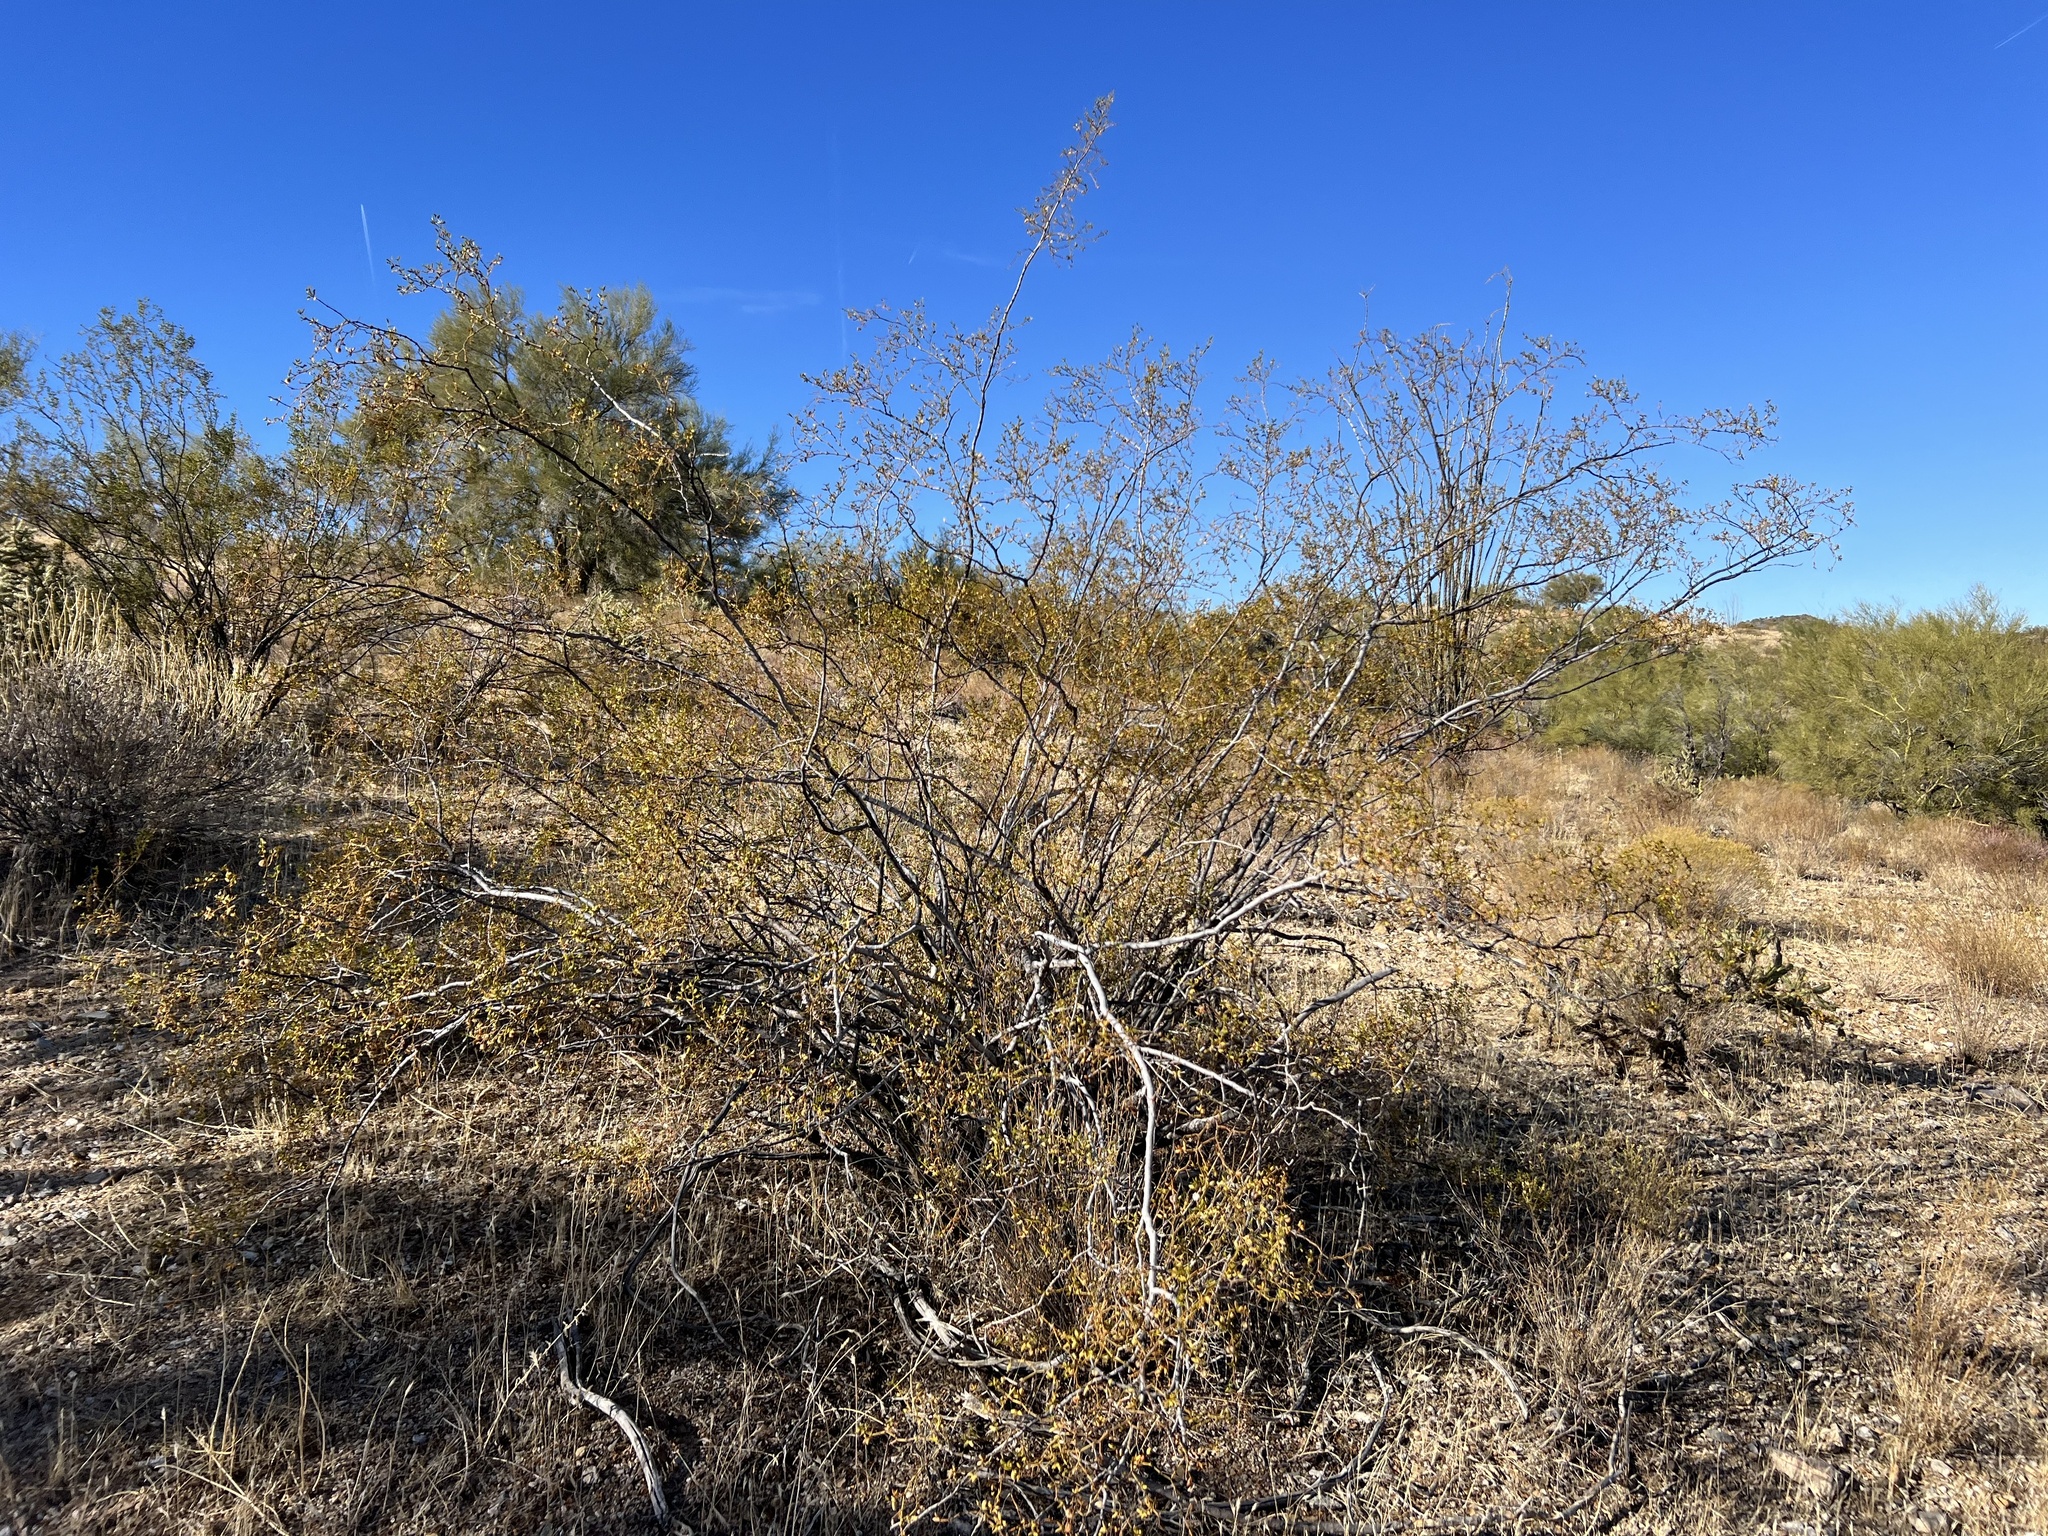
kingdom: Plantae
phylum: Tracheophyta
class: Magnoliopsida
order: Zygophyllales
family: Zygophyllaceae
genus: Larrea
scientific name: Larrea tridentata
